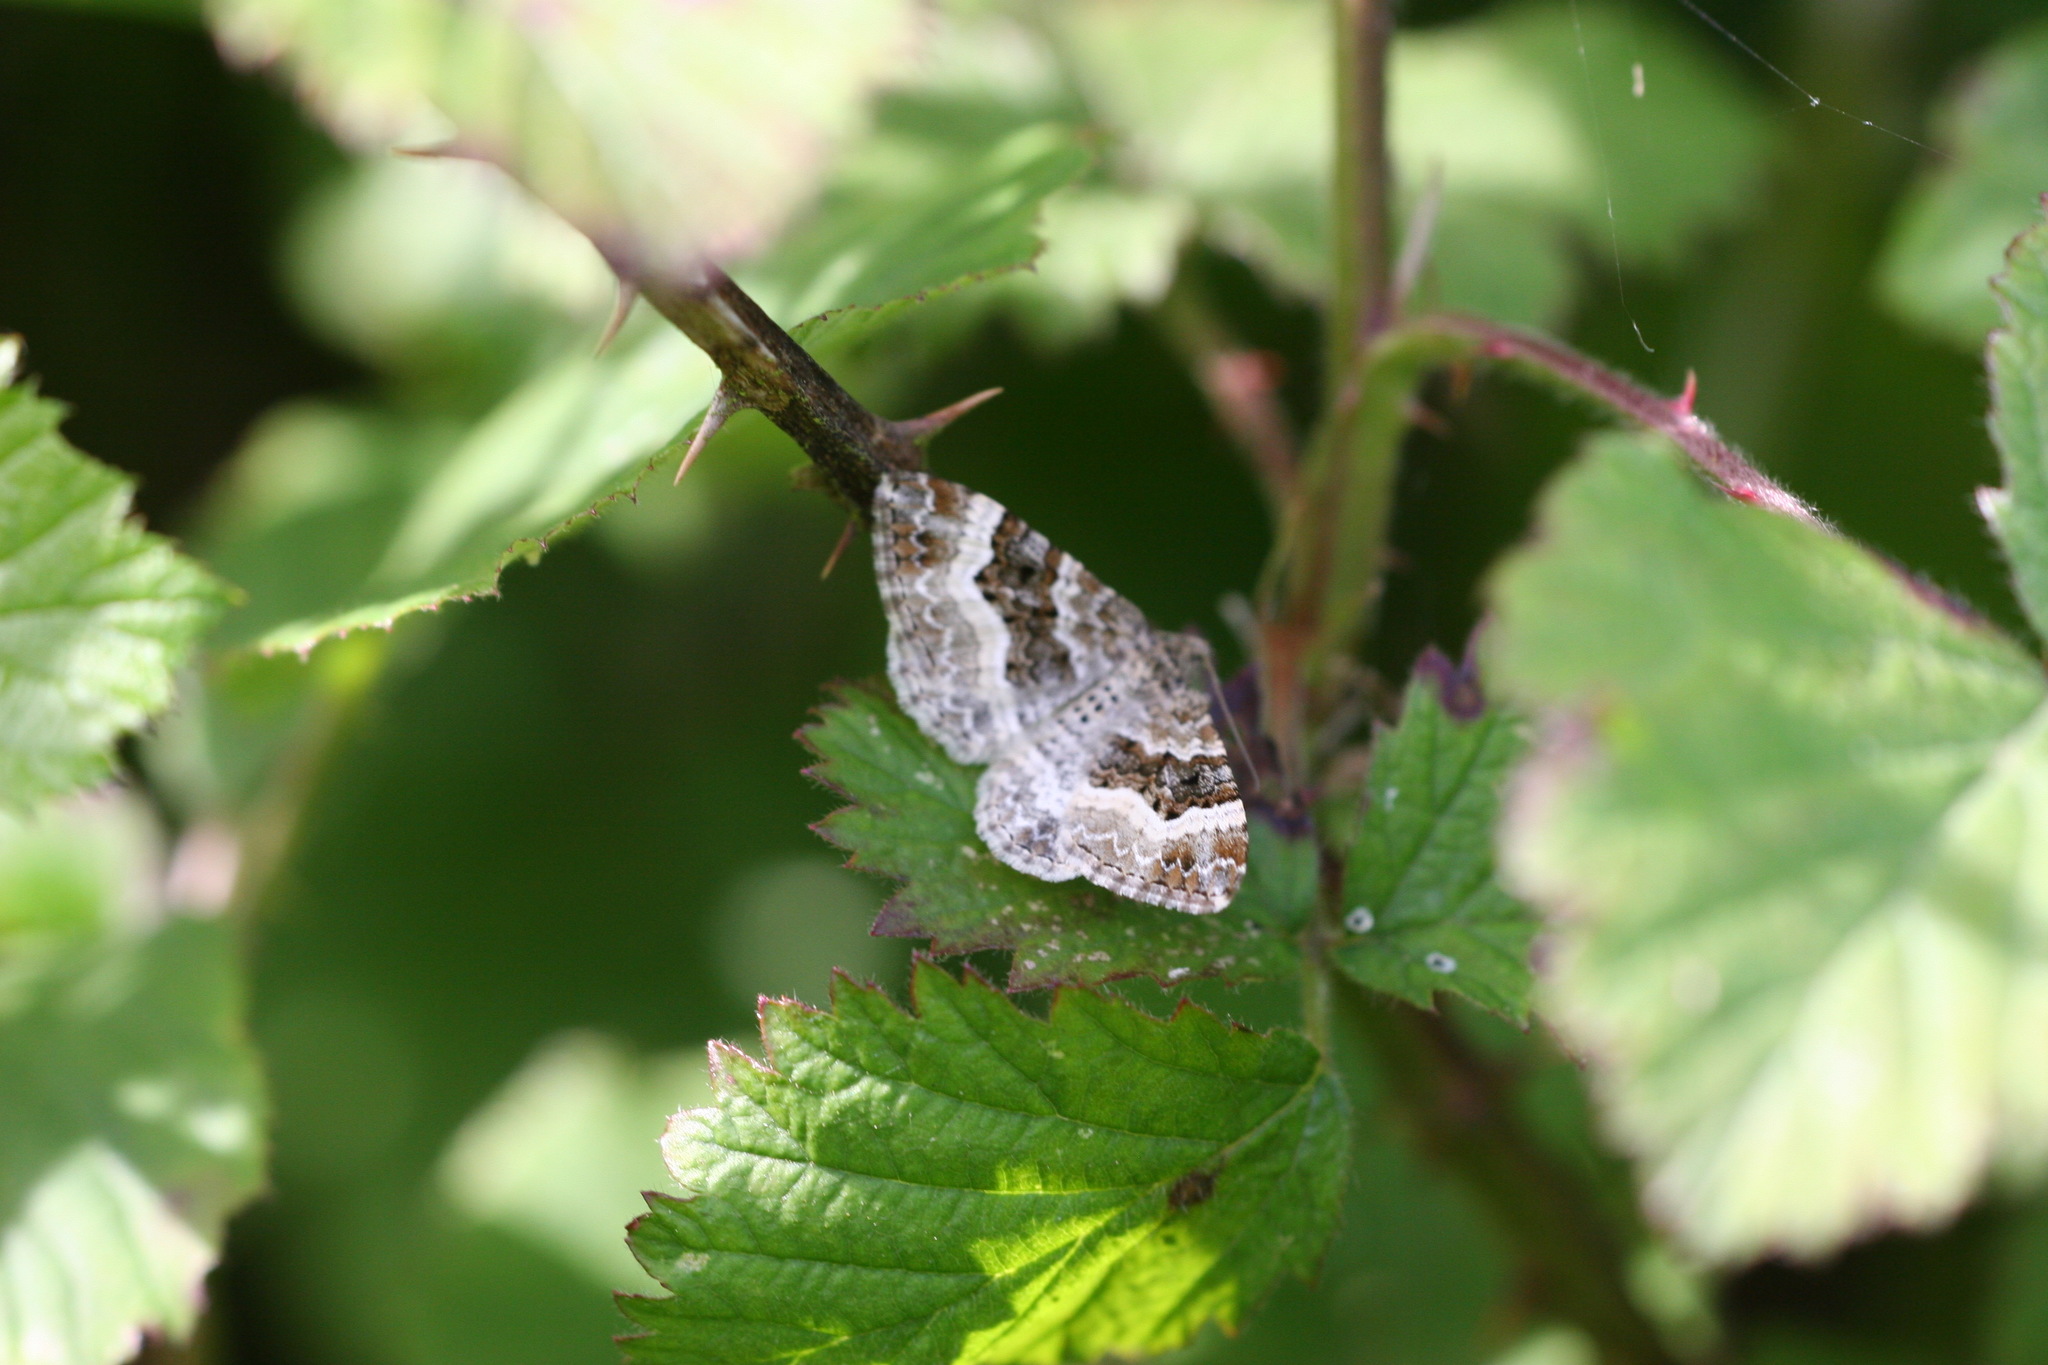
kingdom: Animalia
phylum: Arthropoda
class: Insecta
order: Lepidoptera
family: Geometridae
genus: Epirrhoe
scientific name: Epirrhoe alternata
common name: Common carpet
